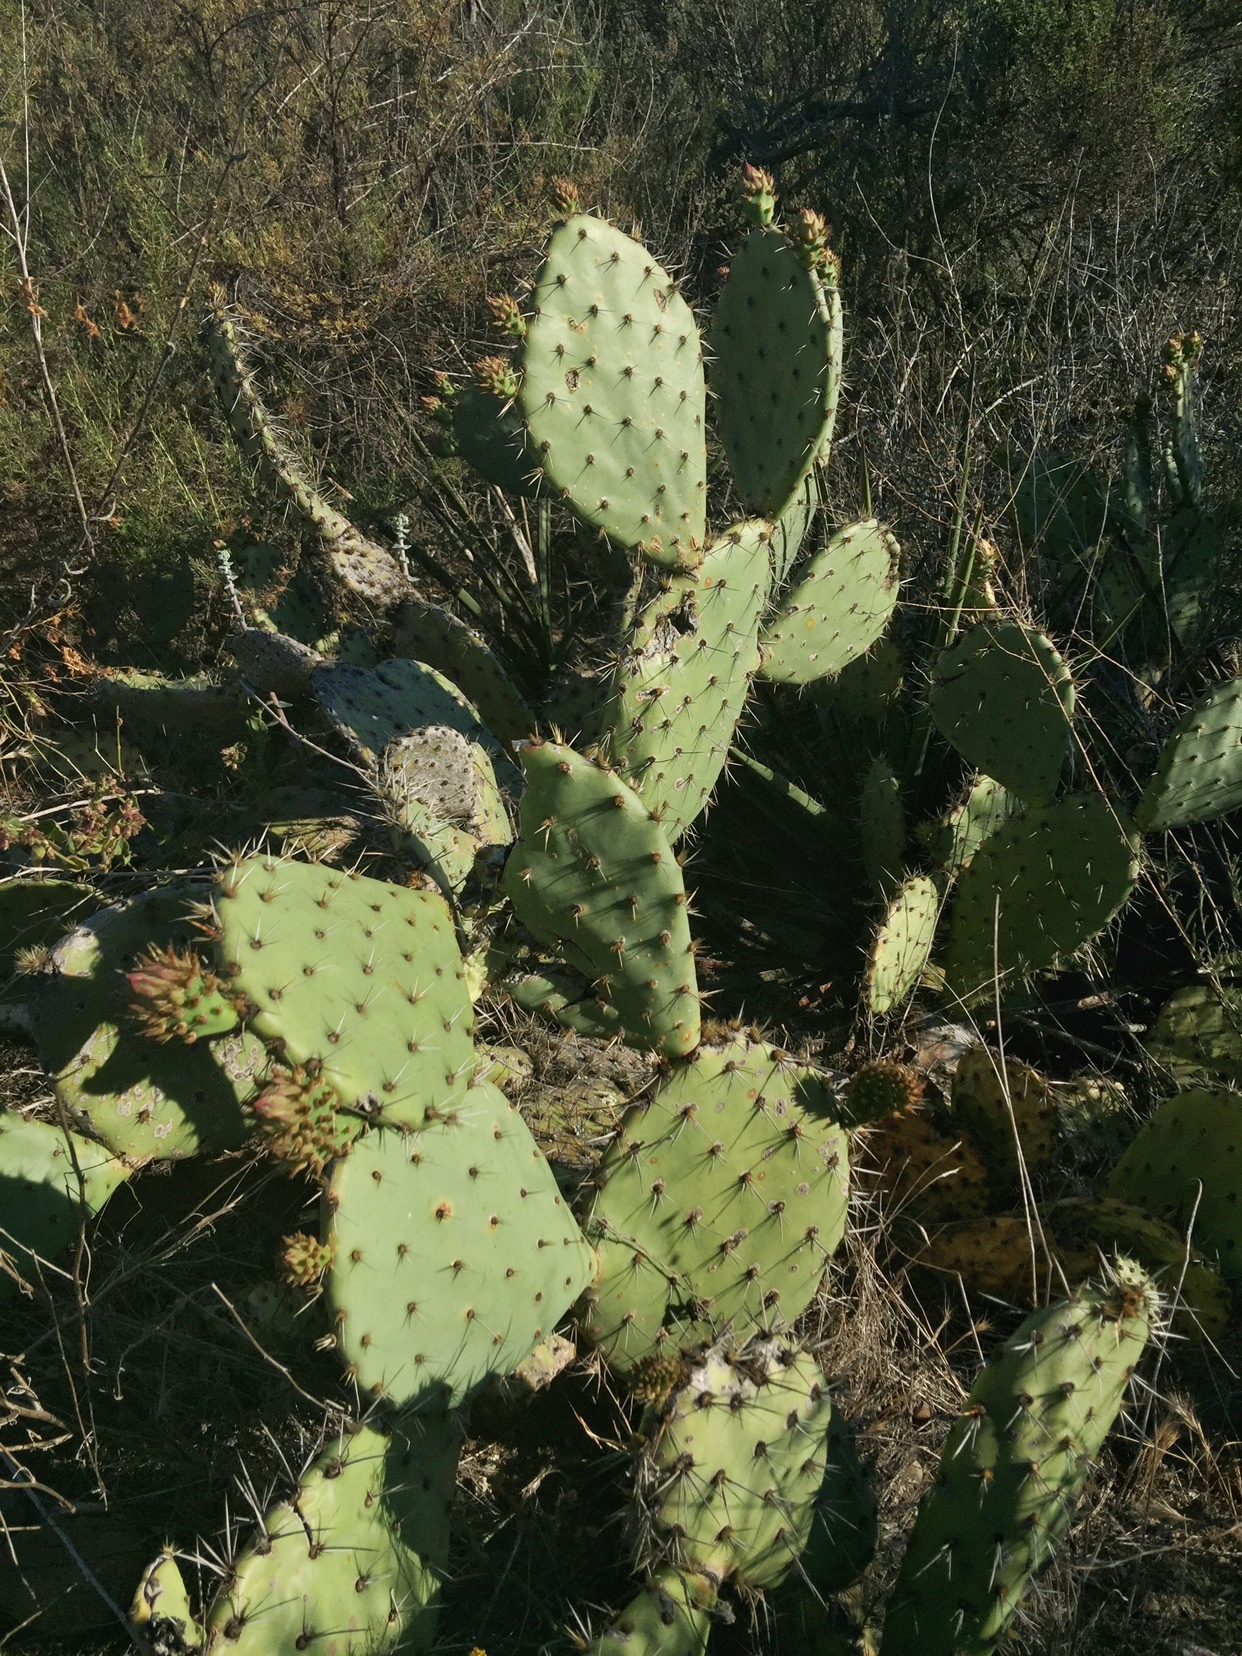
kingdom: Plantae
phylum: Tracheophyta
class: Magnoliopsida
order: Caryophyllales
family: Cactaceae
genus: Opuntia
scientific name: Opuntia littoralis
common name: Coastal prickly-pear
